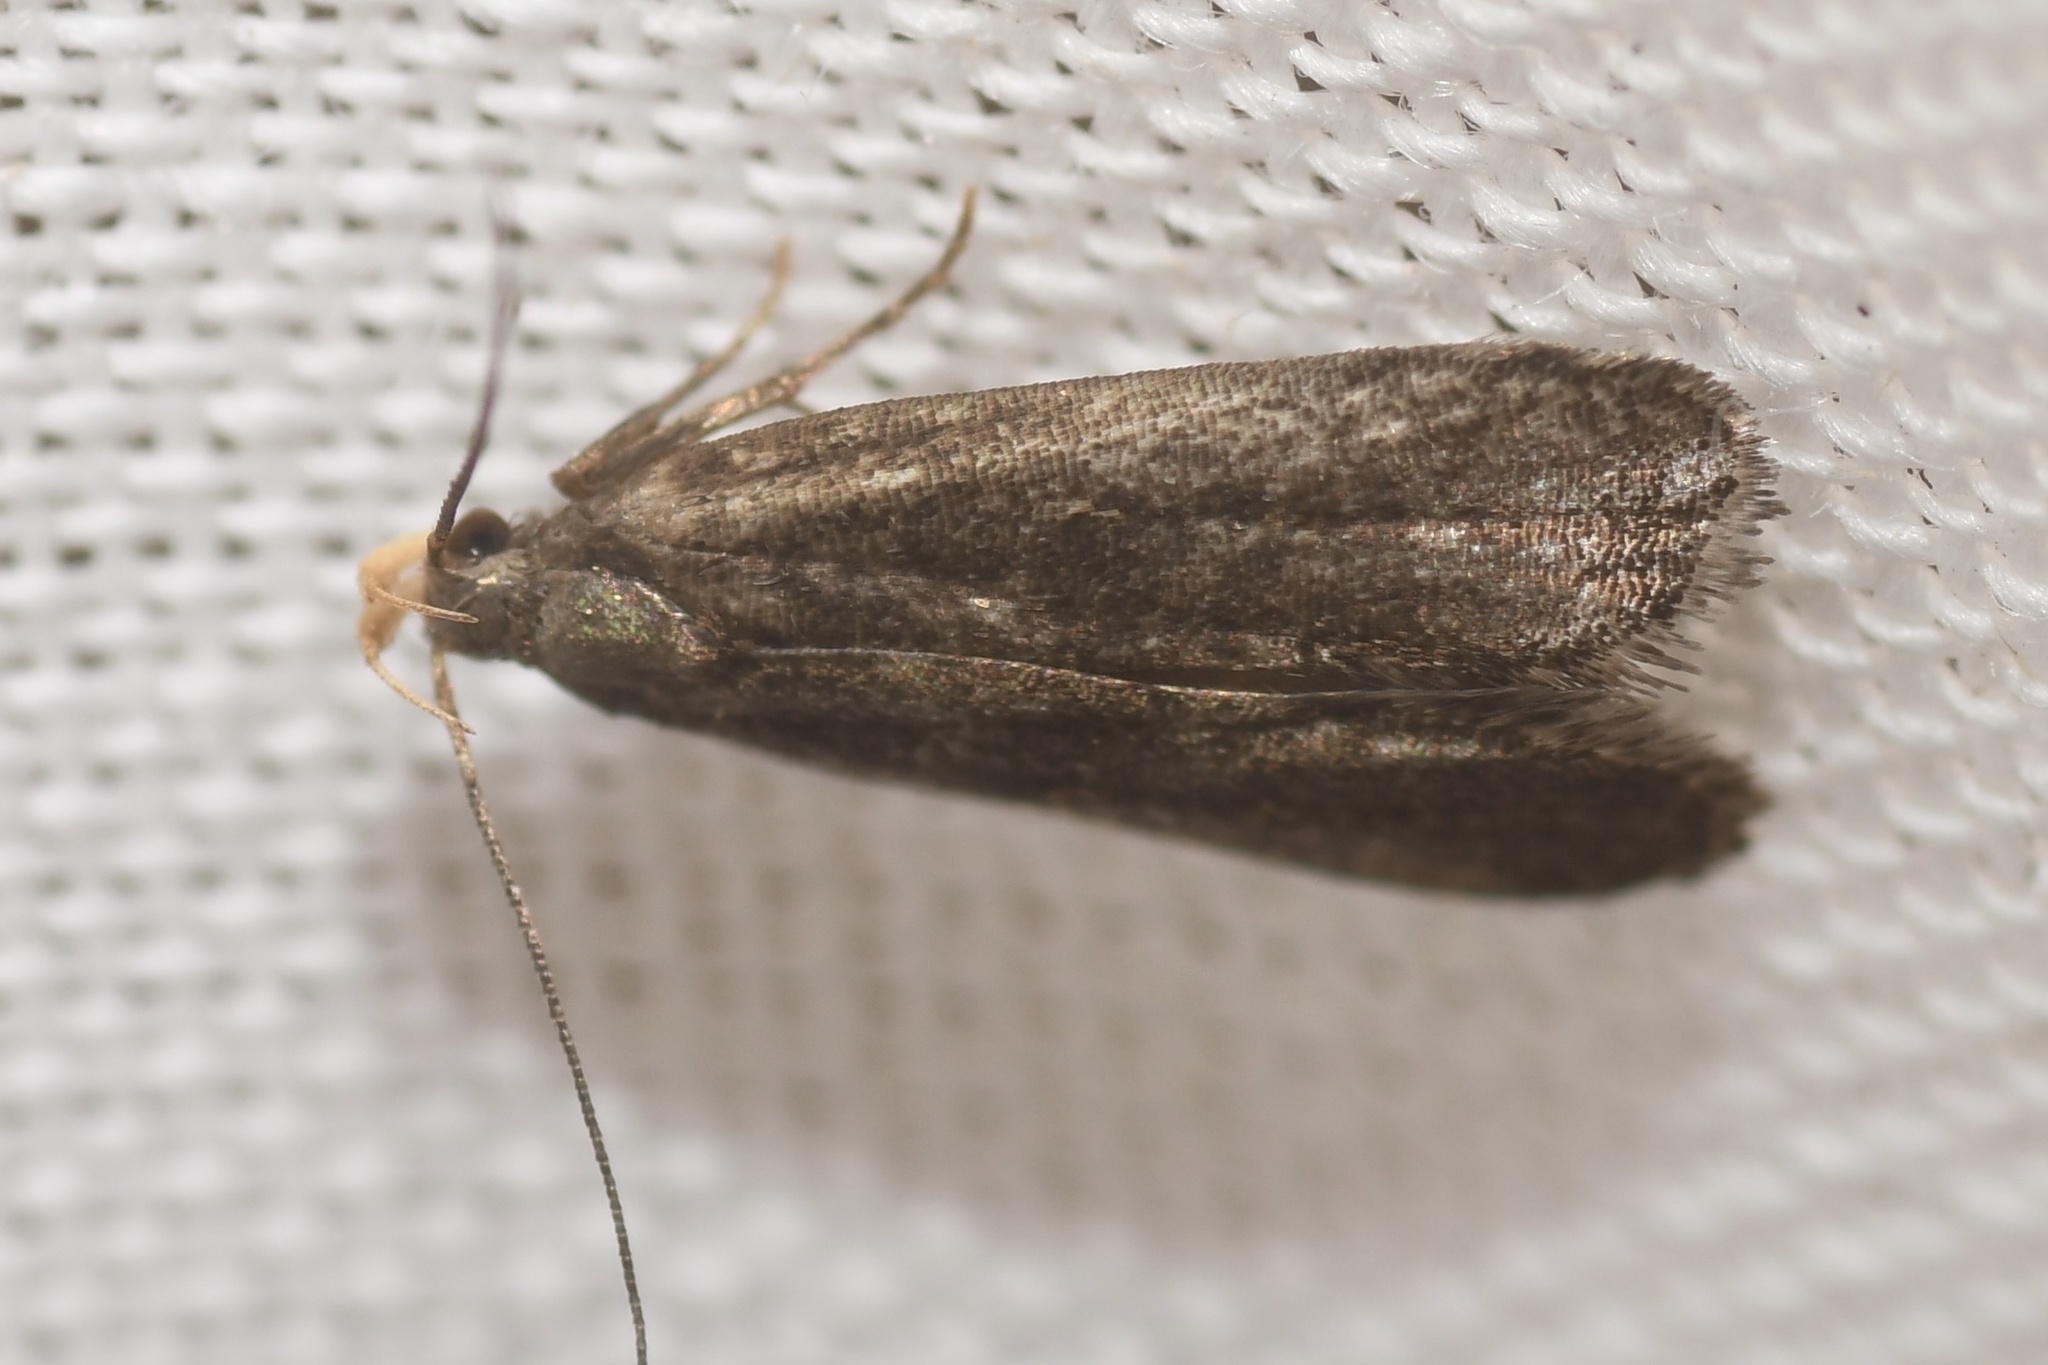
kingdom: Animalia
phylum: Arthropoda
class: Insecta
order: Lepidoptera
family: Gelechiidae
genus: Dichomeris
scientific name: Dichomeris purpureofusca
